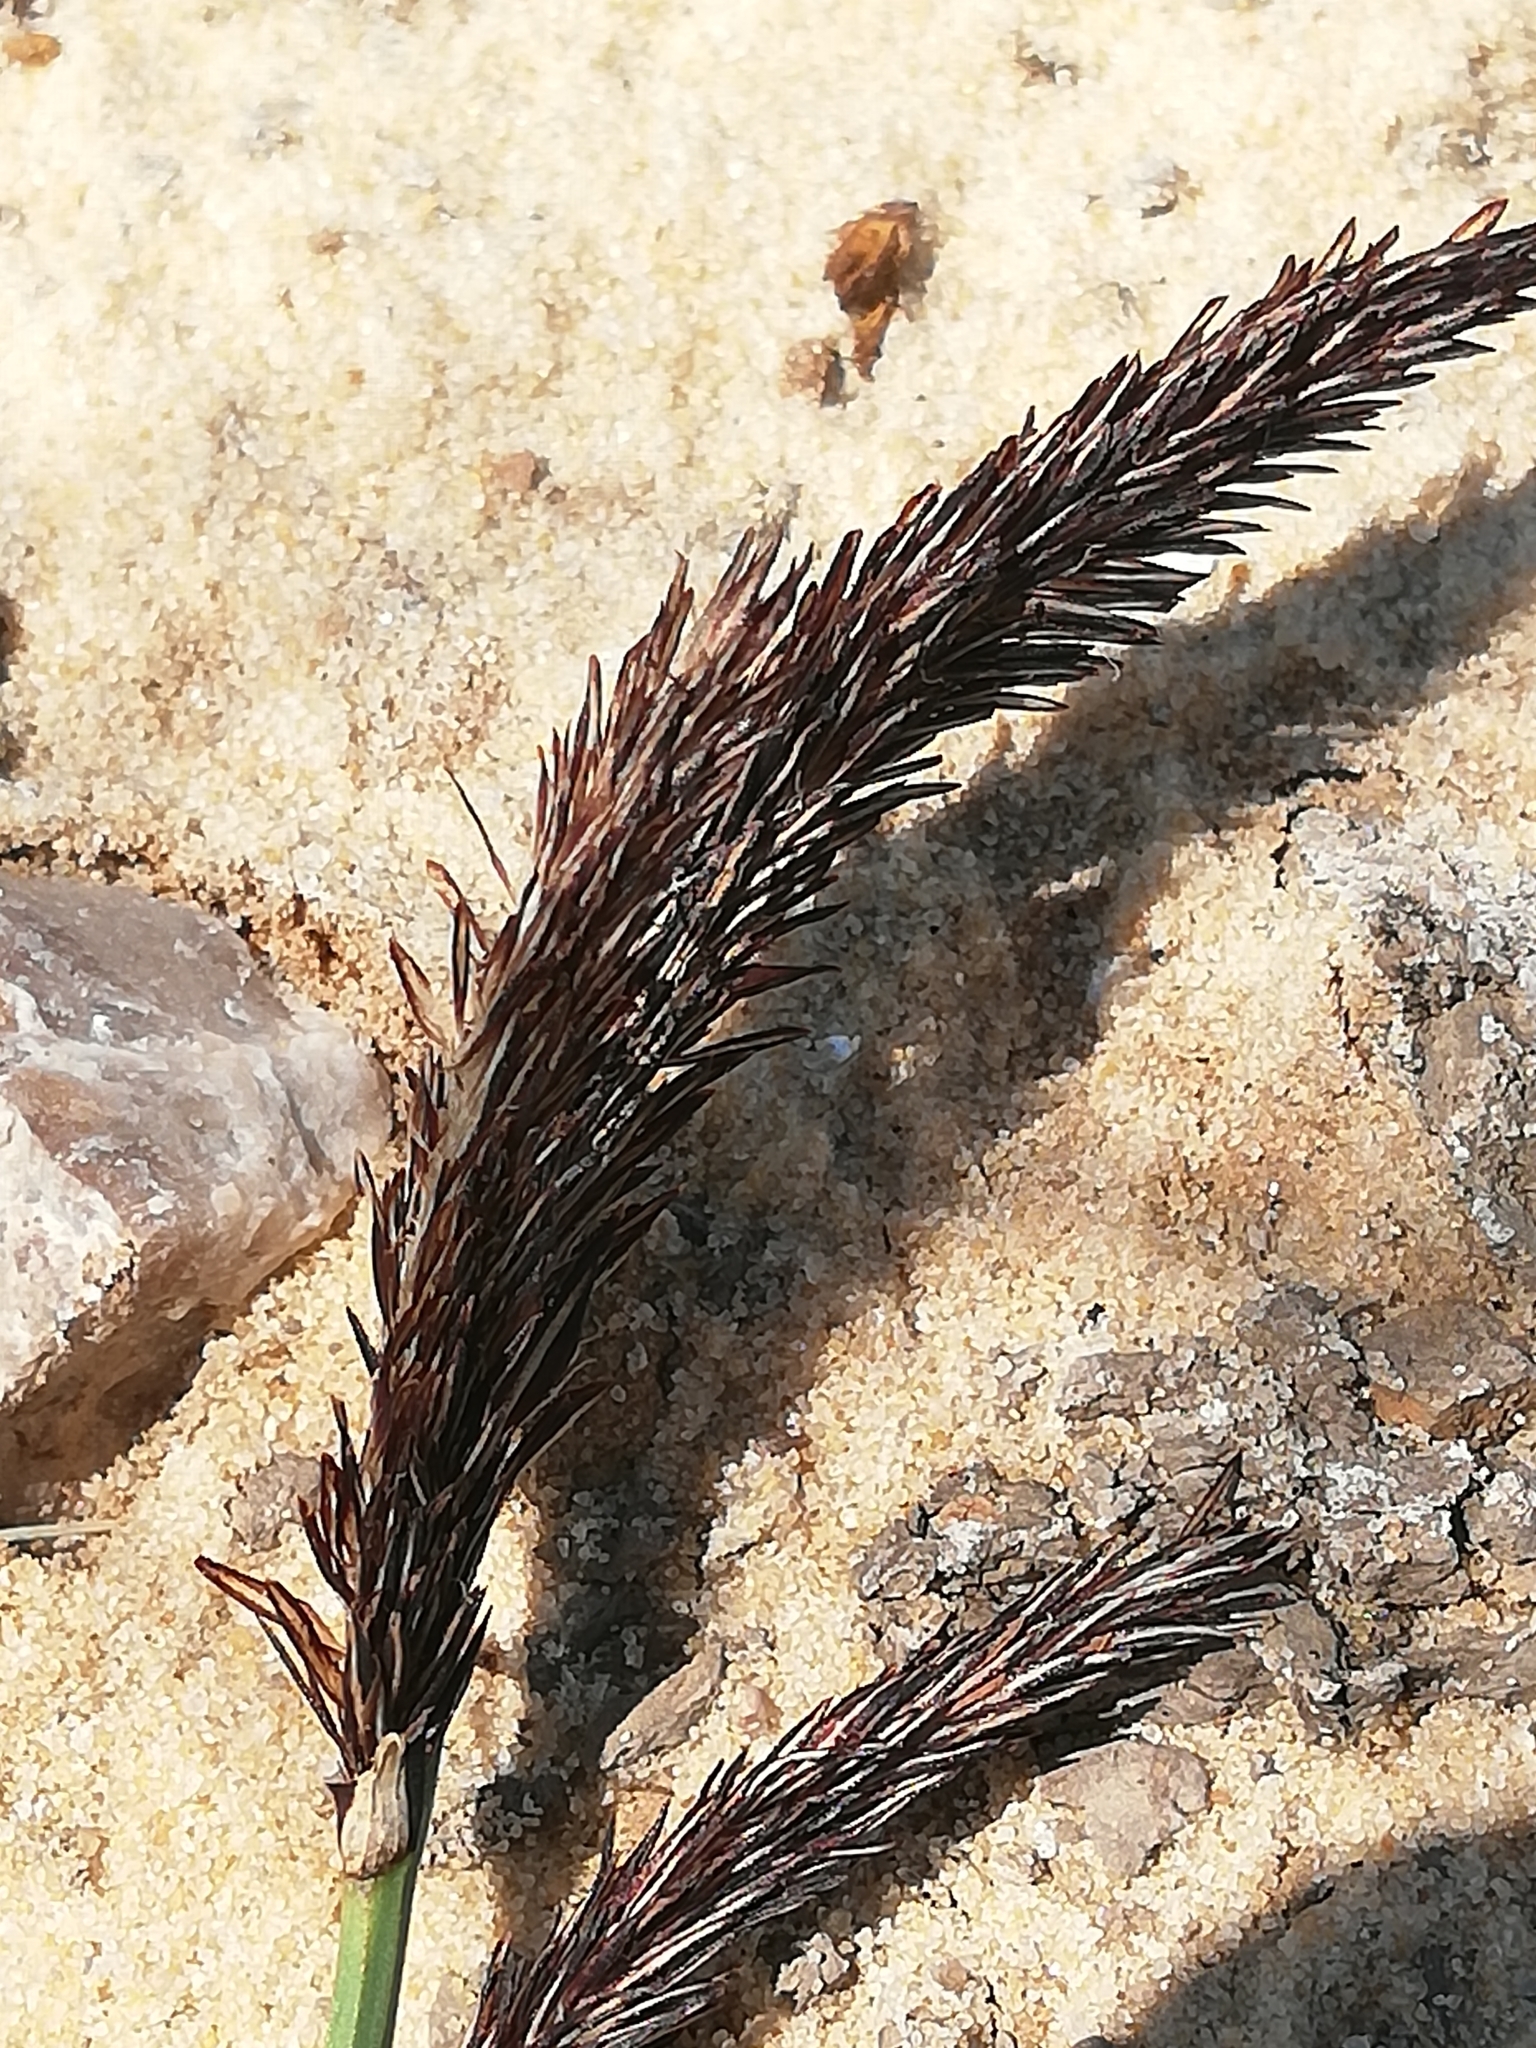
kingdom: Plantae
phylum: Tracheophyta
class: Liliopsida
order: Poales
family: Cyperaceae
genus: Carex
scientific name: Carex acuta
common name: Slender tufted-sedge
